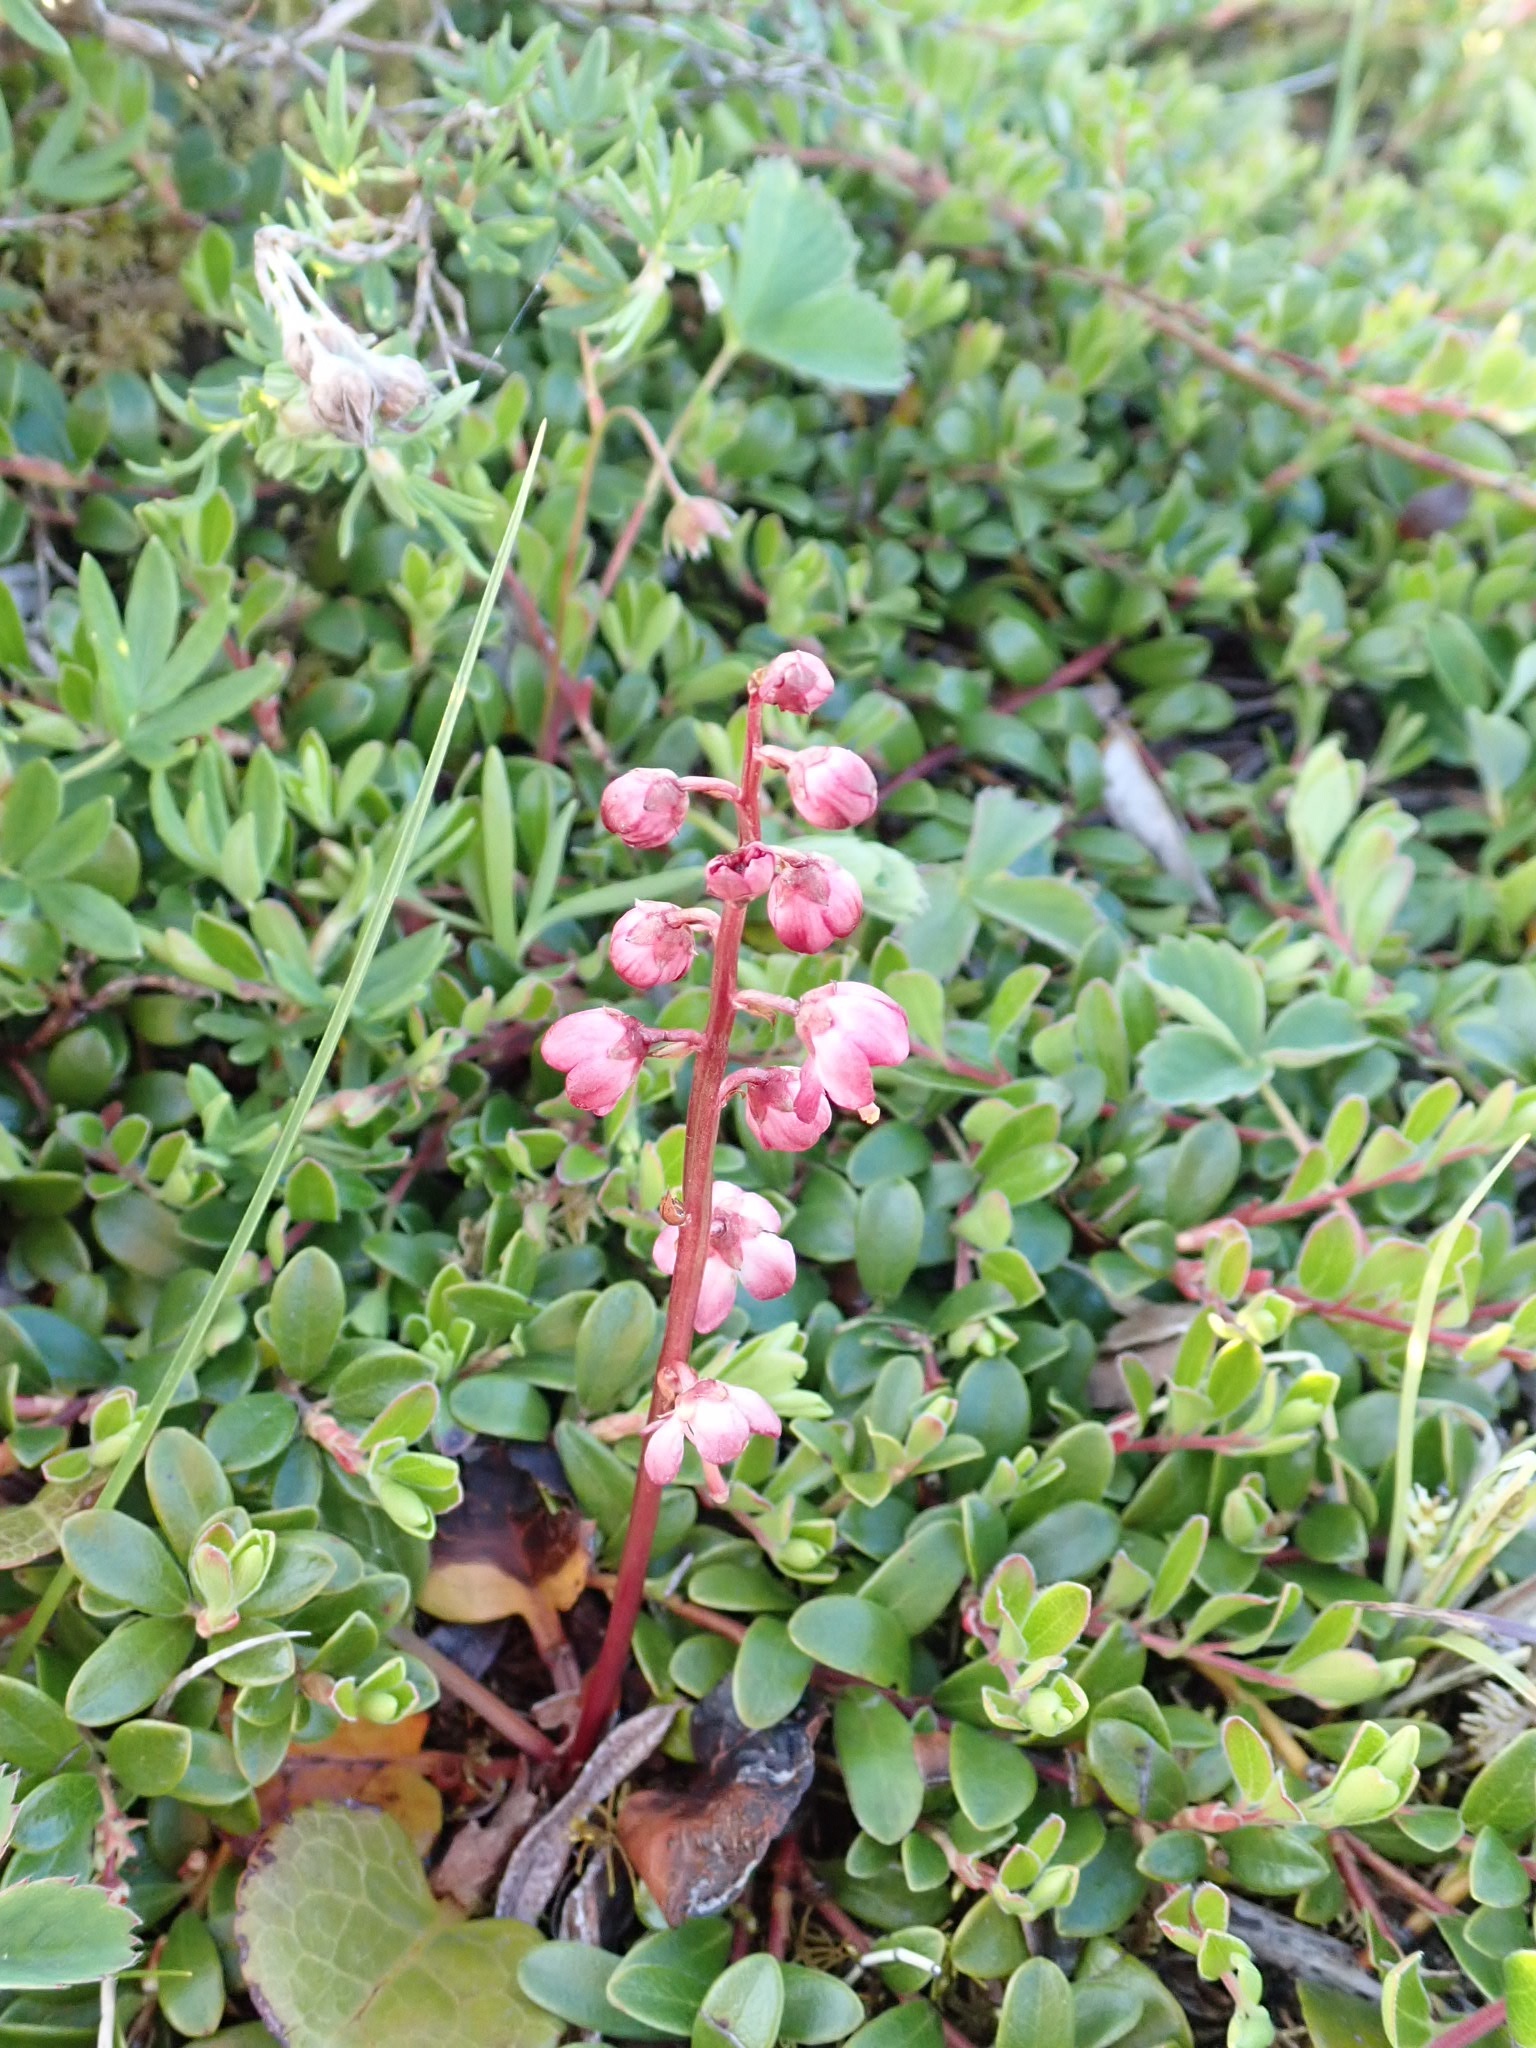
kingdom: Plantae
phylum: Tracheophyta
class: Magnoliopsida
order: Ericales
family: Ericaceae
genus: Pyrola
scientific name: Pyrola asarifolia
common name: Bog wintergreen
